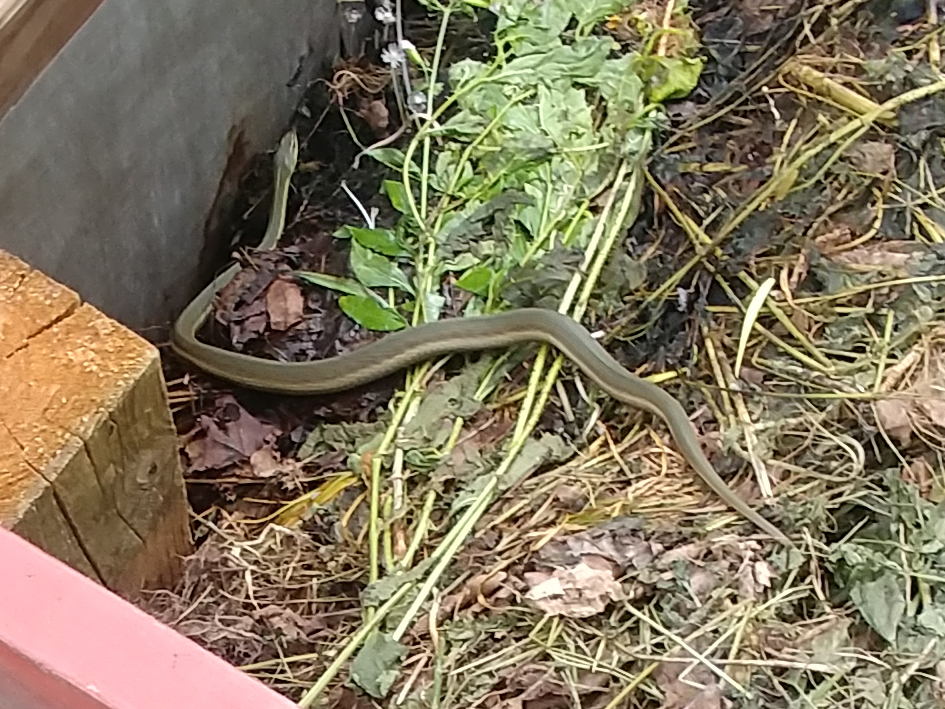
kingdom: Animalia
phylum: Chordata
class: Squamata
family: Colubridae
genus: Thamnophis
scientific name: Thamnophis sirtalis
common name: Common garter snake
